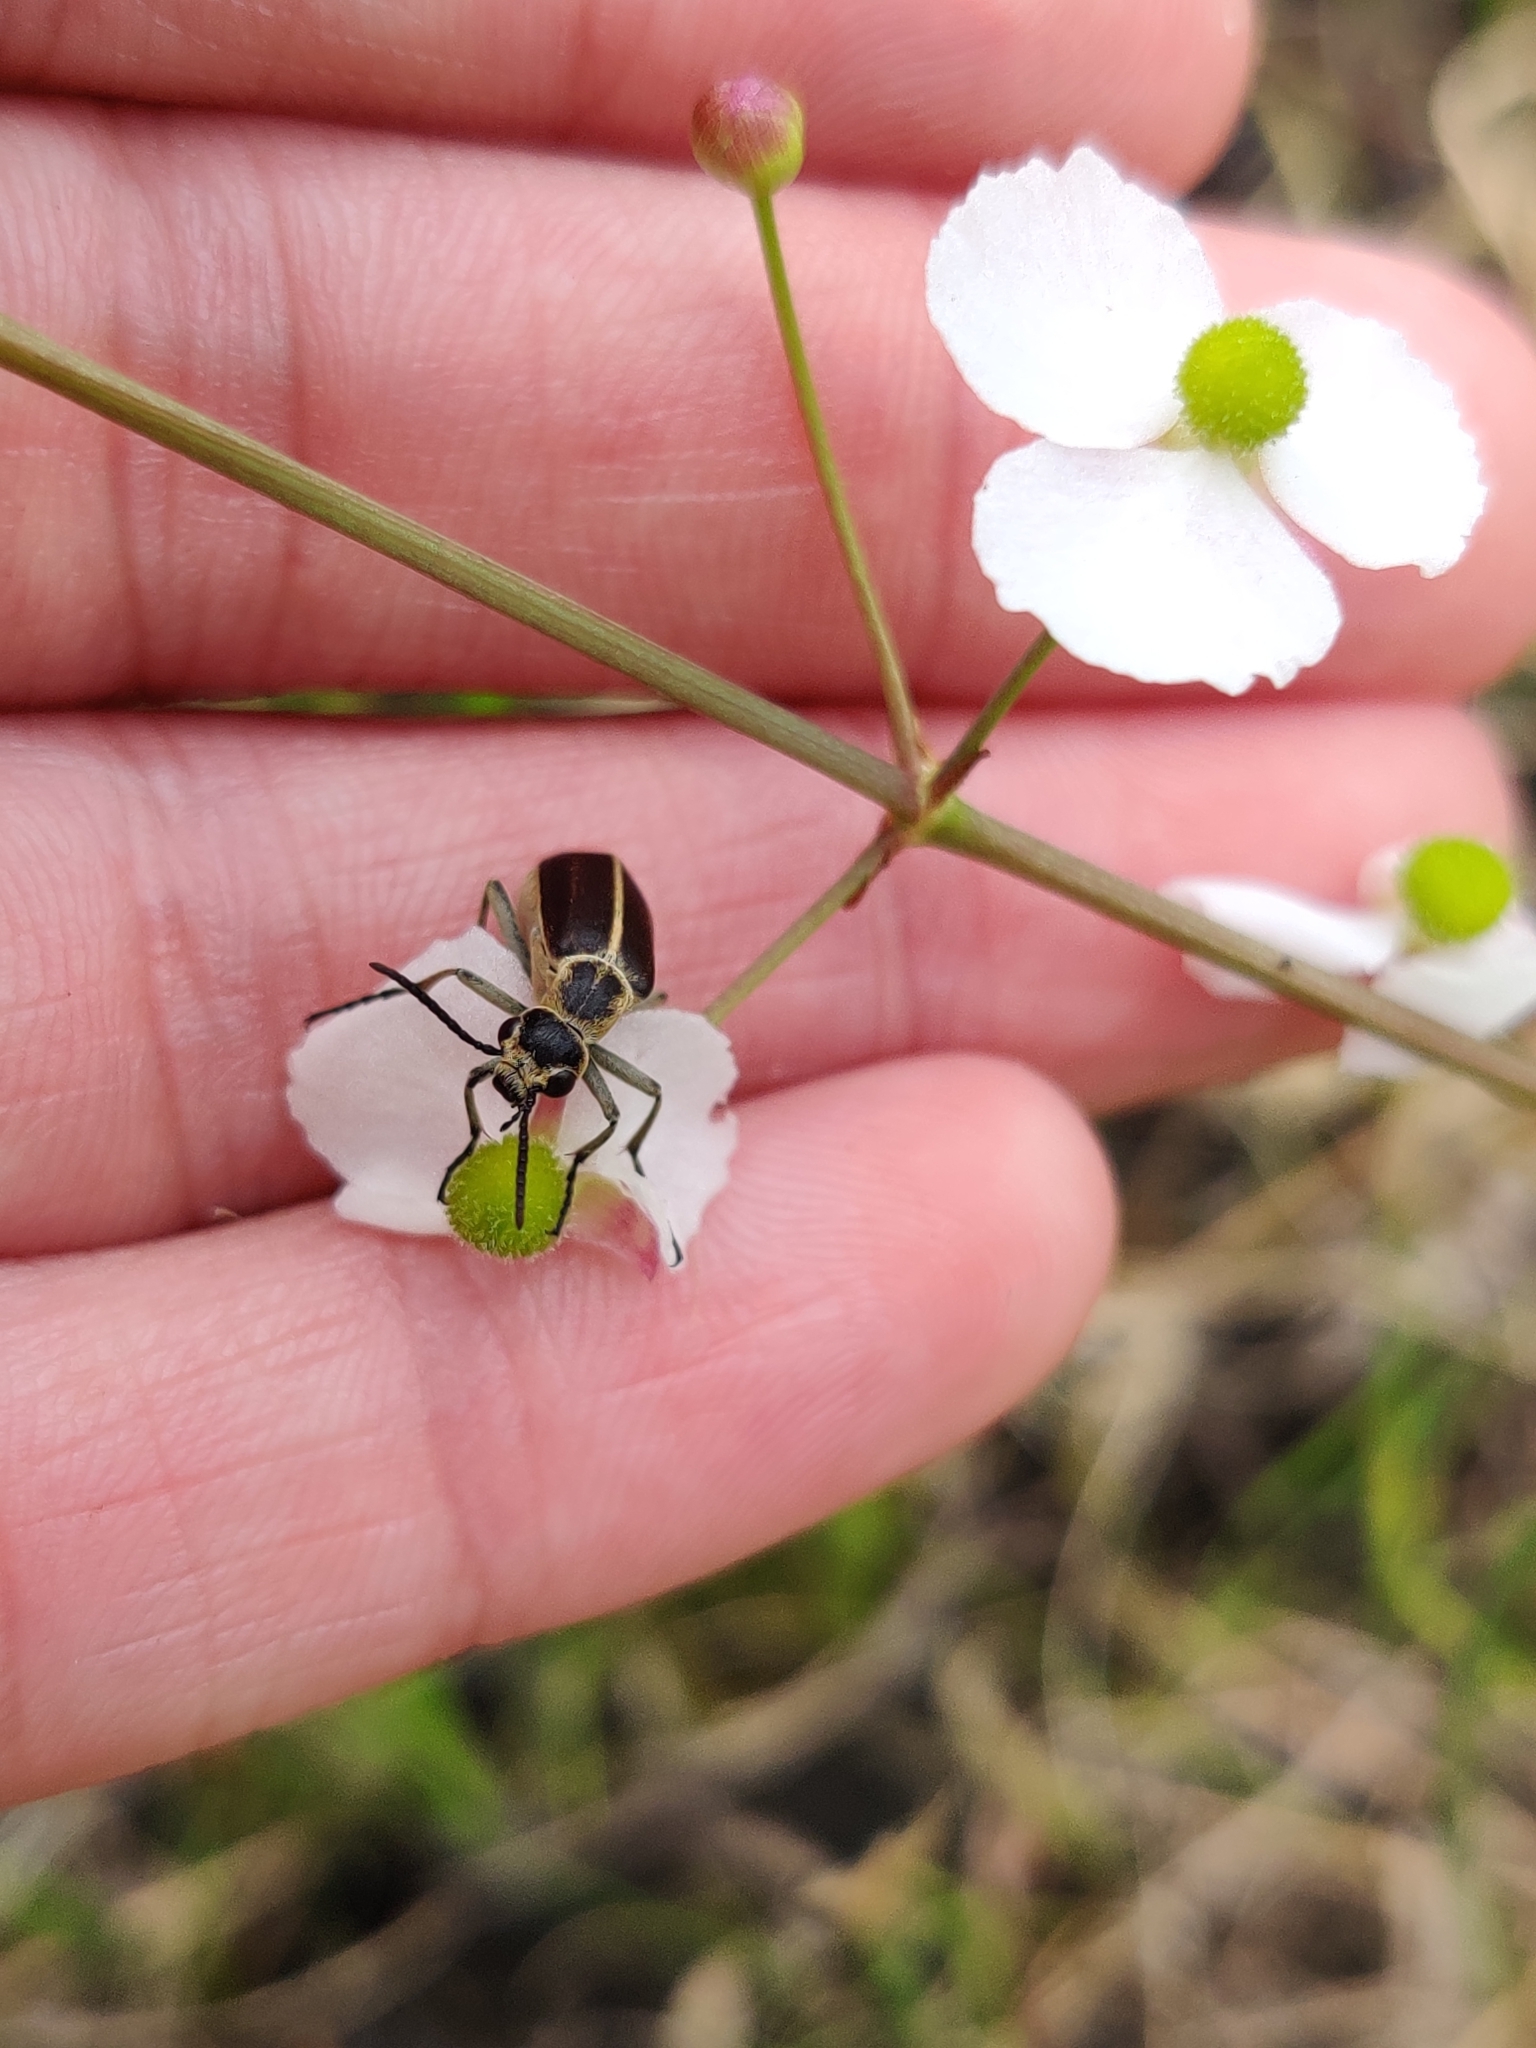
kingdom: Animalia
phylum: Arthropoda
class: Insecta
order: Coleoptera
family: Meloidae
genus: Epicauta
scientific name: Epicauta strigosa
